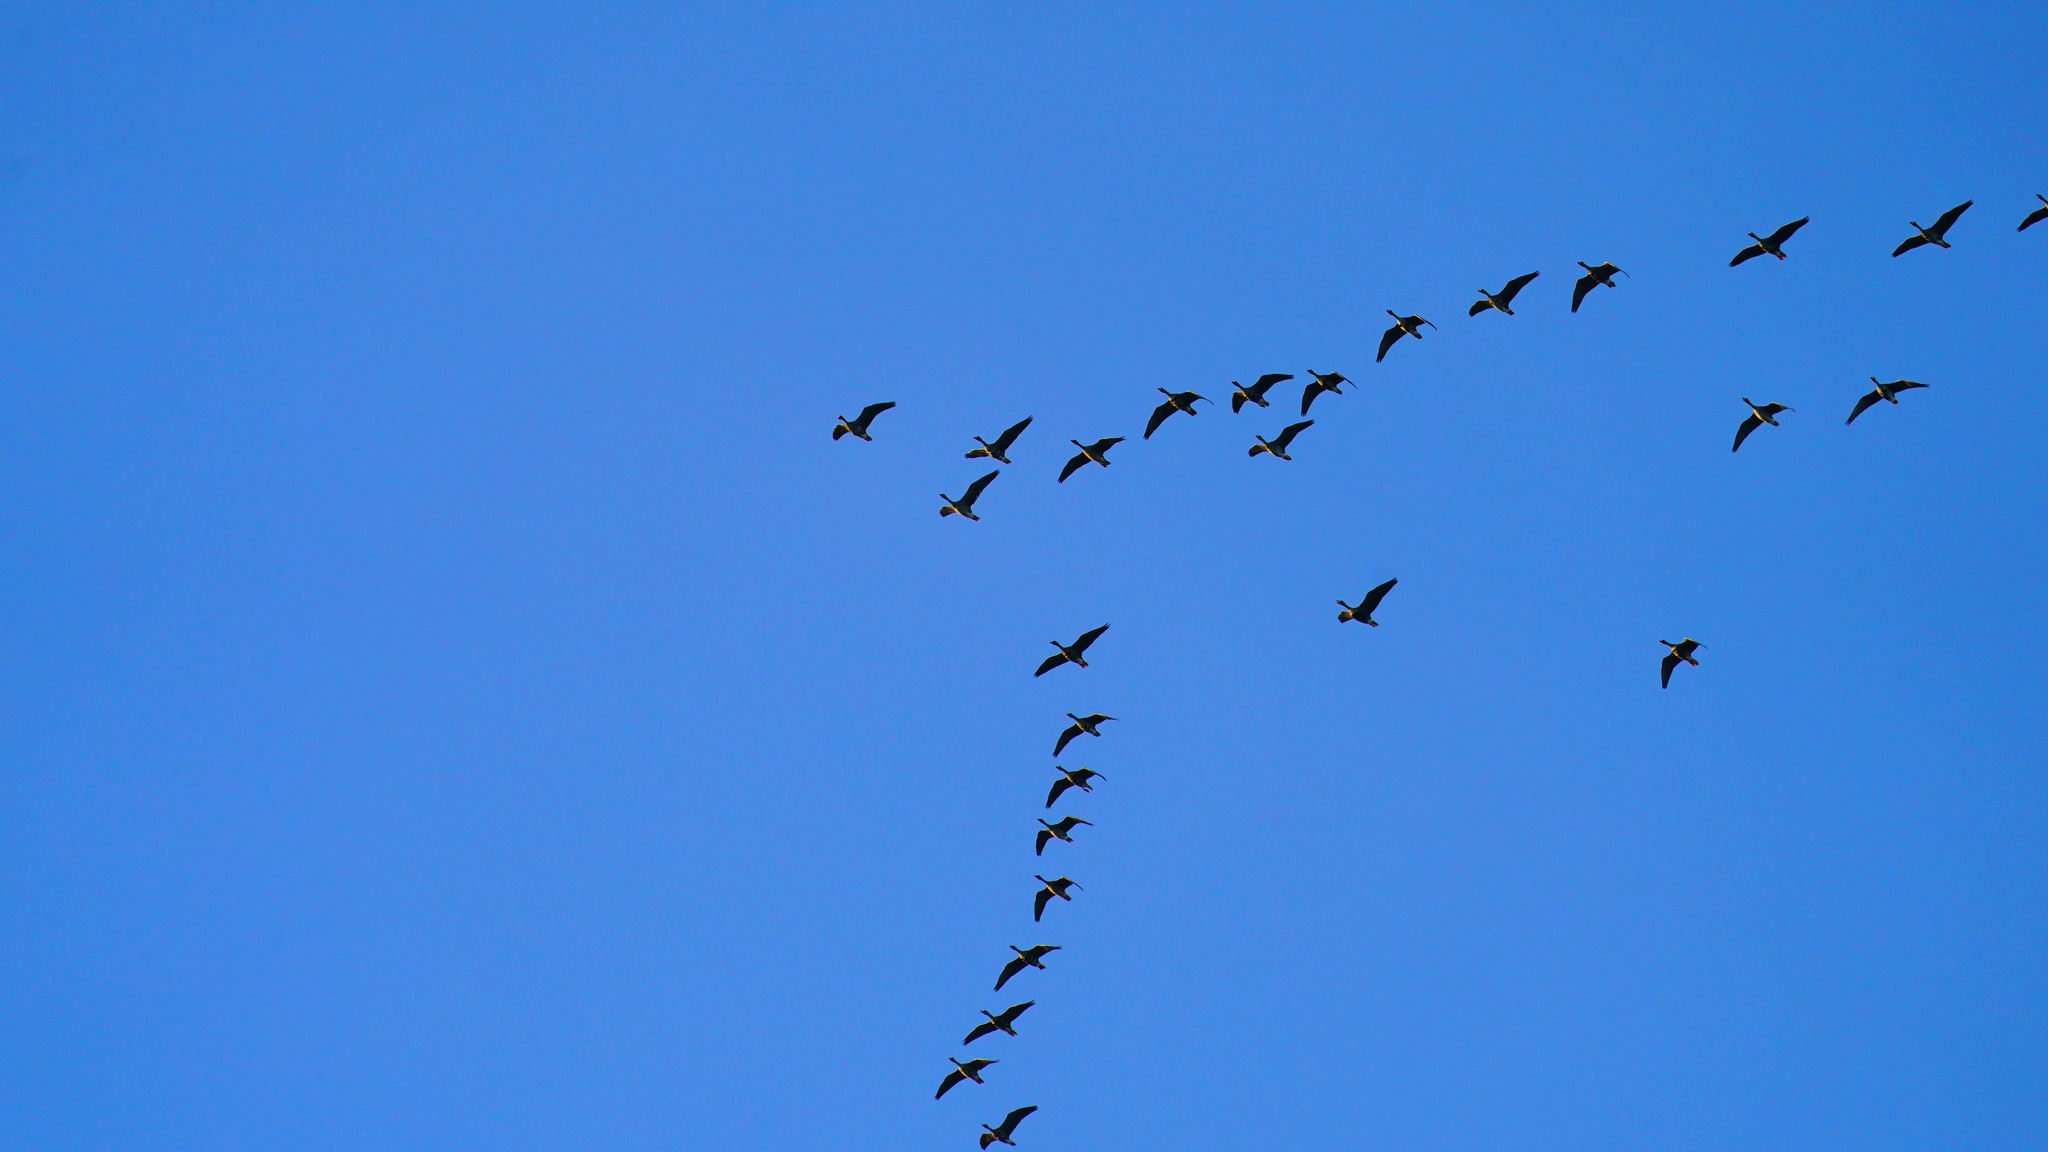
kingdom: Animalia
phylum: Chordata
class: Aves
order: Anseriformes
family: Anatidae
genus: Branta
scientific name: Branta canadensis
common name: Canada goose
